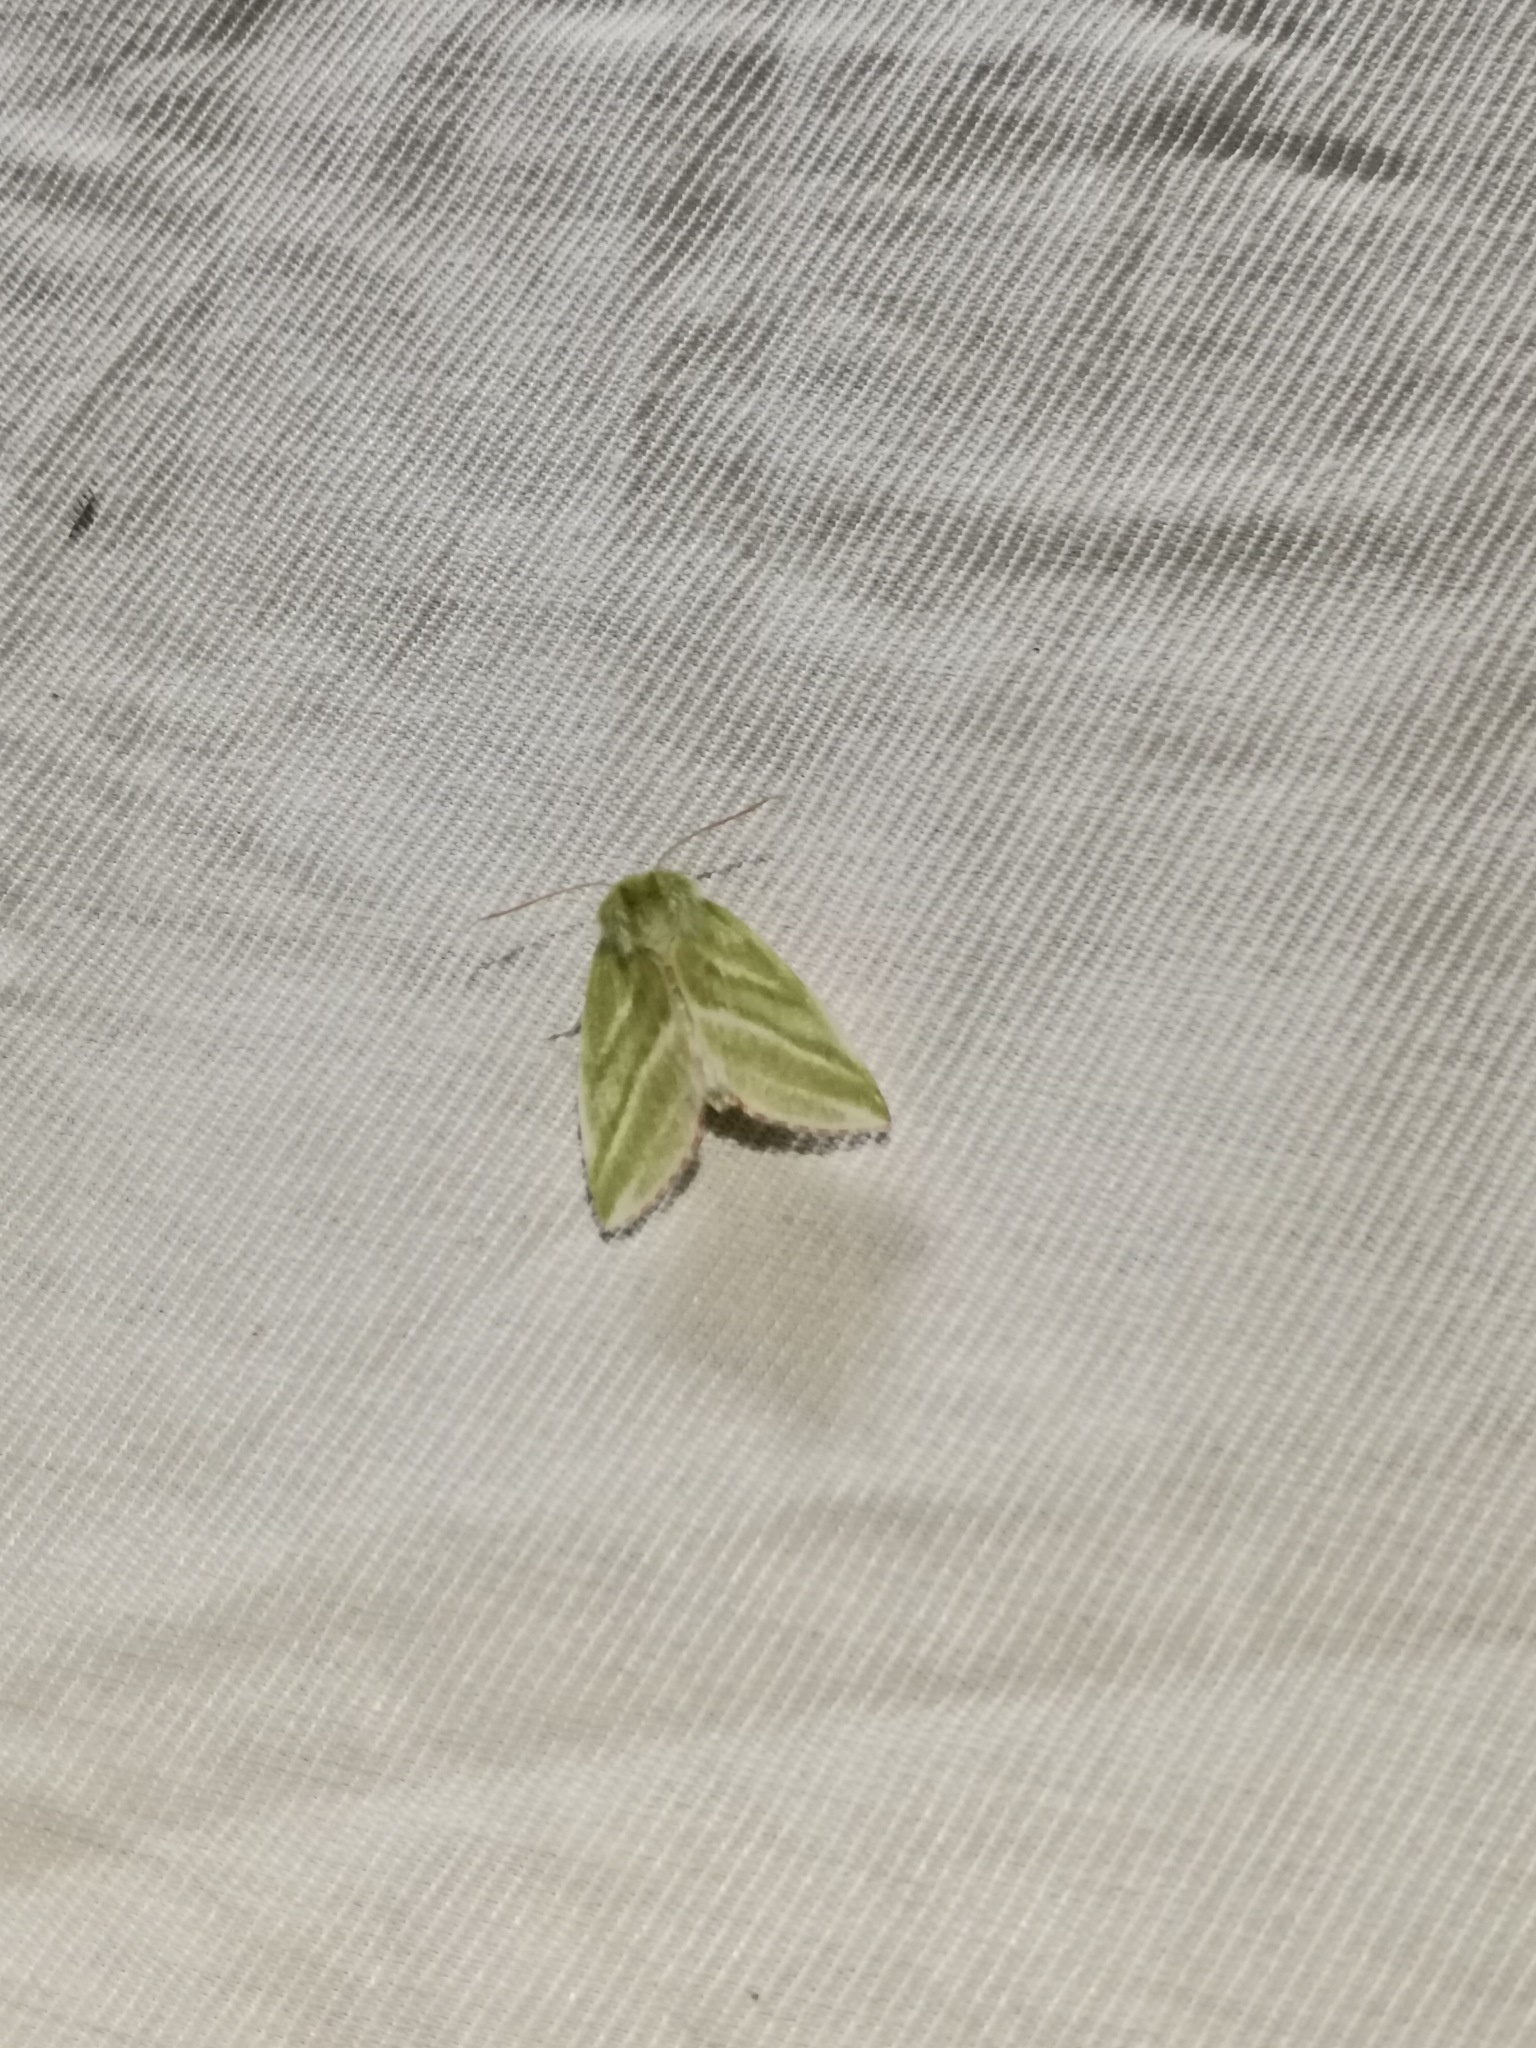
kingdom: Animalia
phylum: Arthropoda
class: Insecta
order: Lepidoptera
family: Nolidae
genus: Pseudoips
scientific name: Pseudoips prasinana
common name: Green silver-lines
